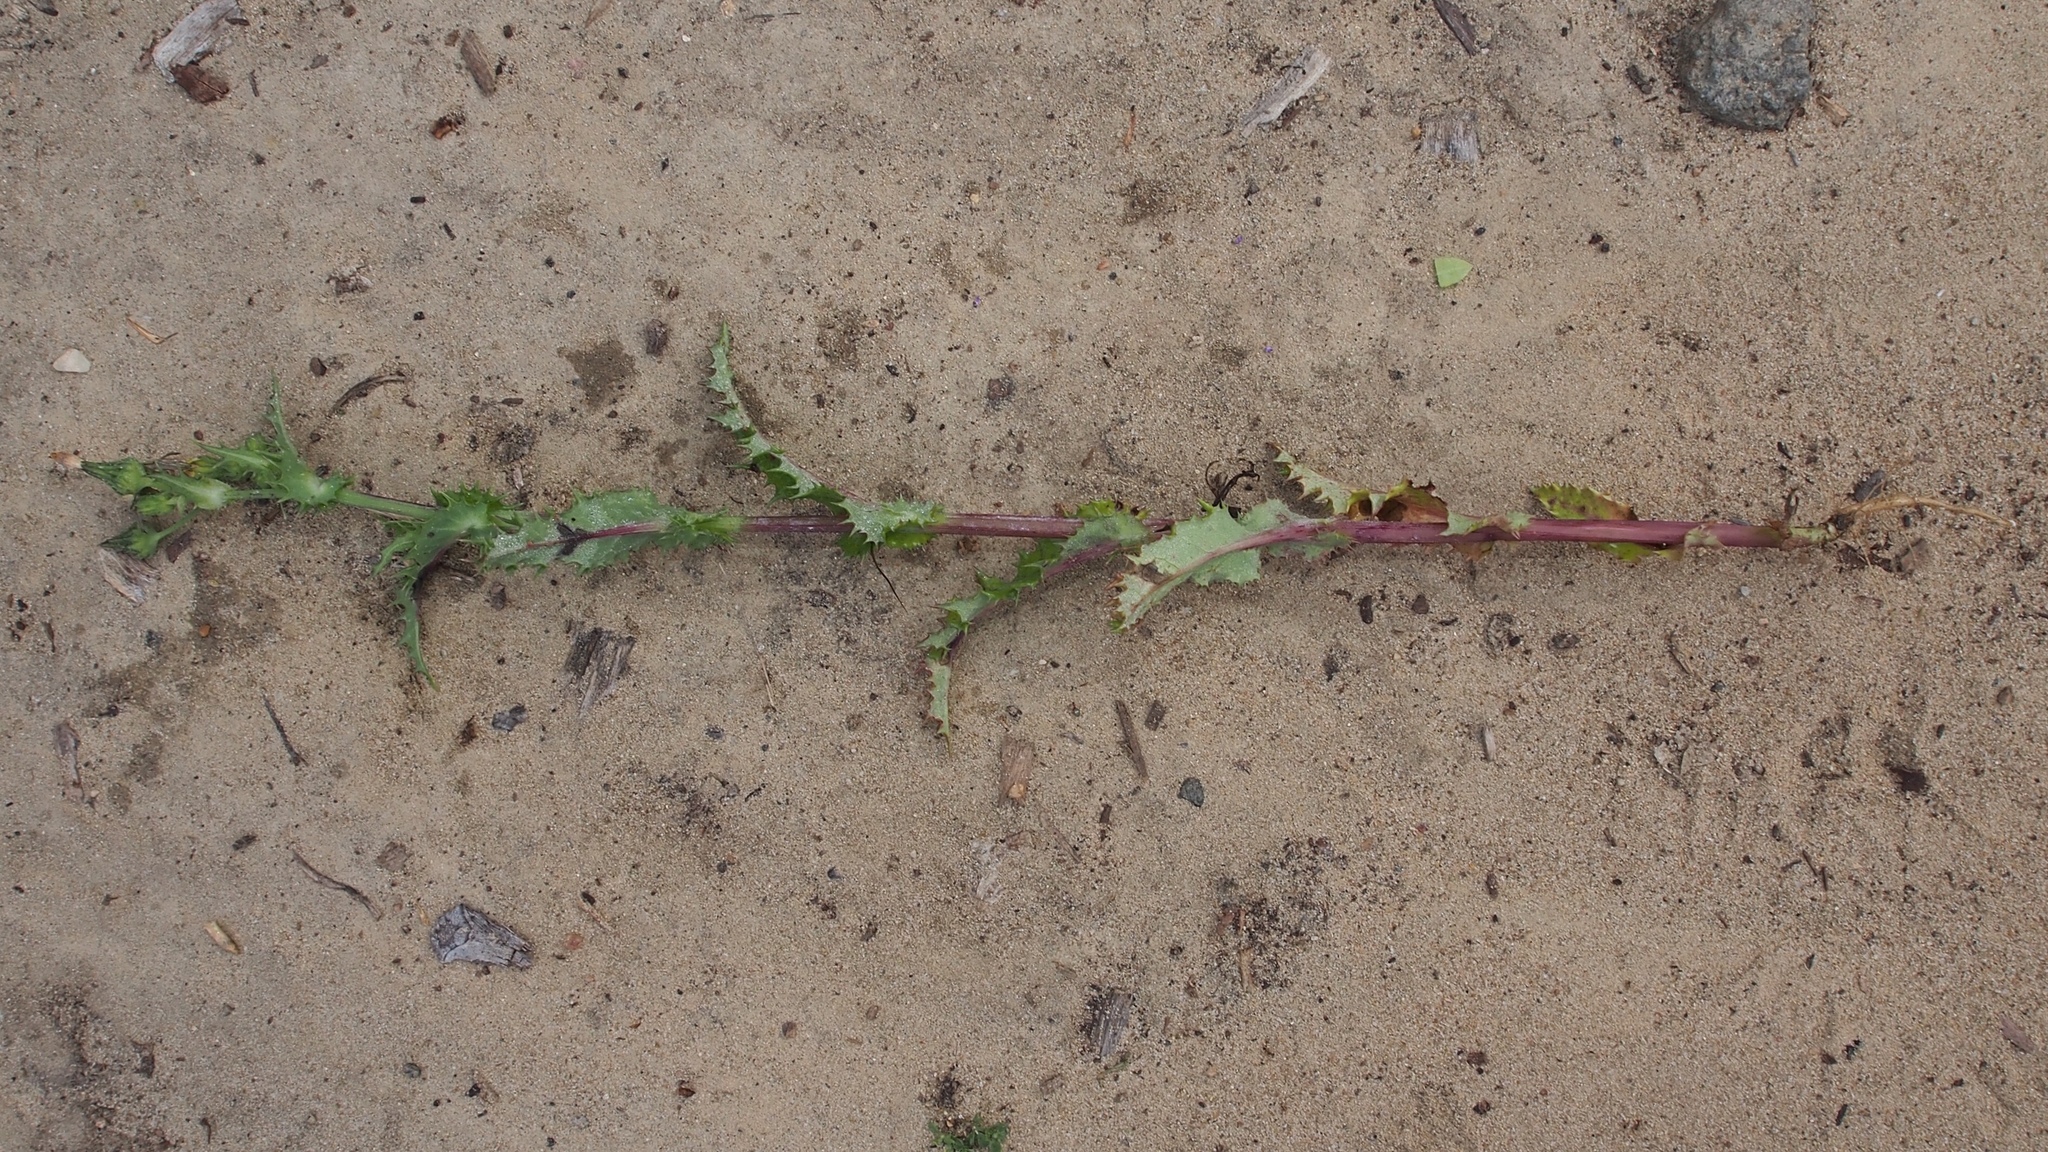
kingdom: Plantae
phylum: Tracheophyta
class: Magnoliopsida
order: Asterales
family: Asteraceae
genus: Sonchus
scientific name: Sonchus asper
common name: Prickly sow-thistle
